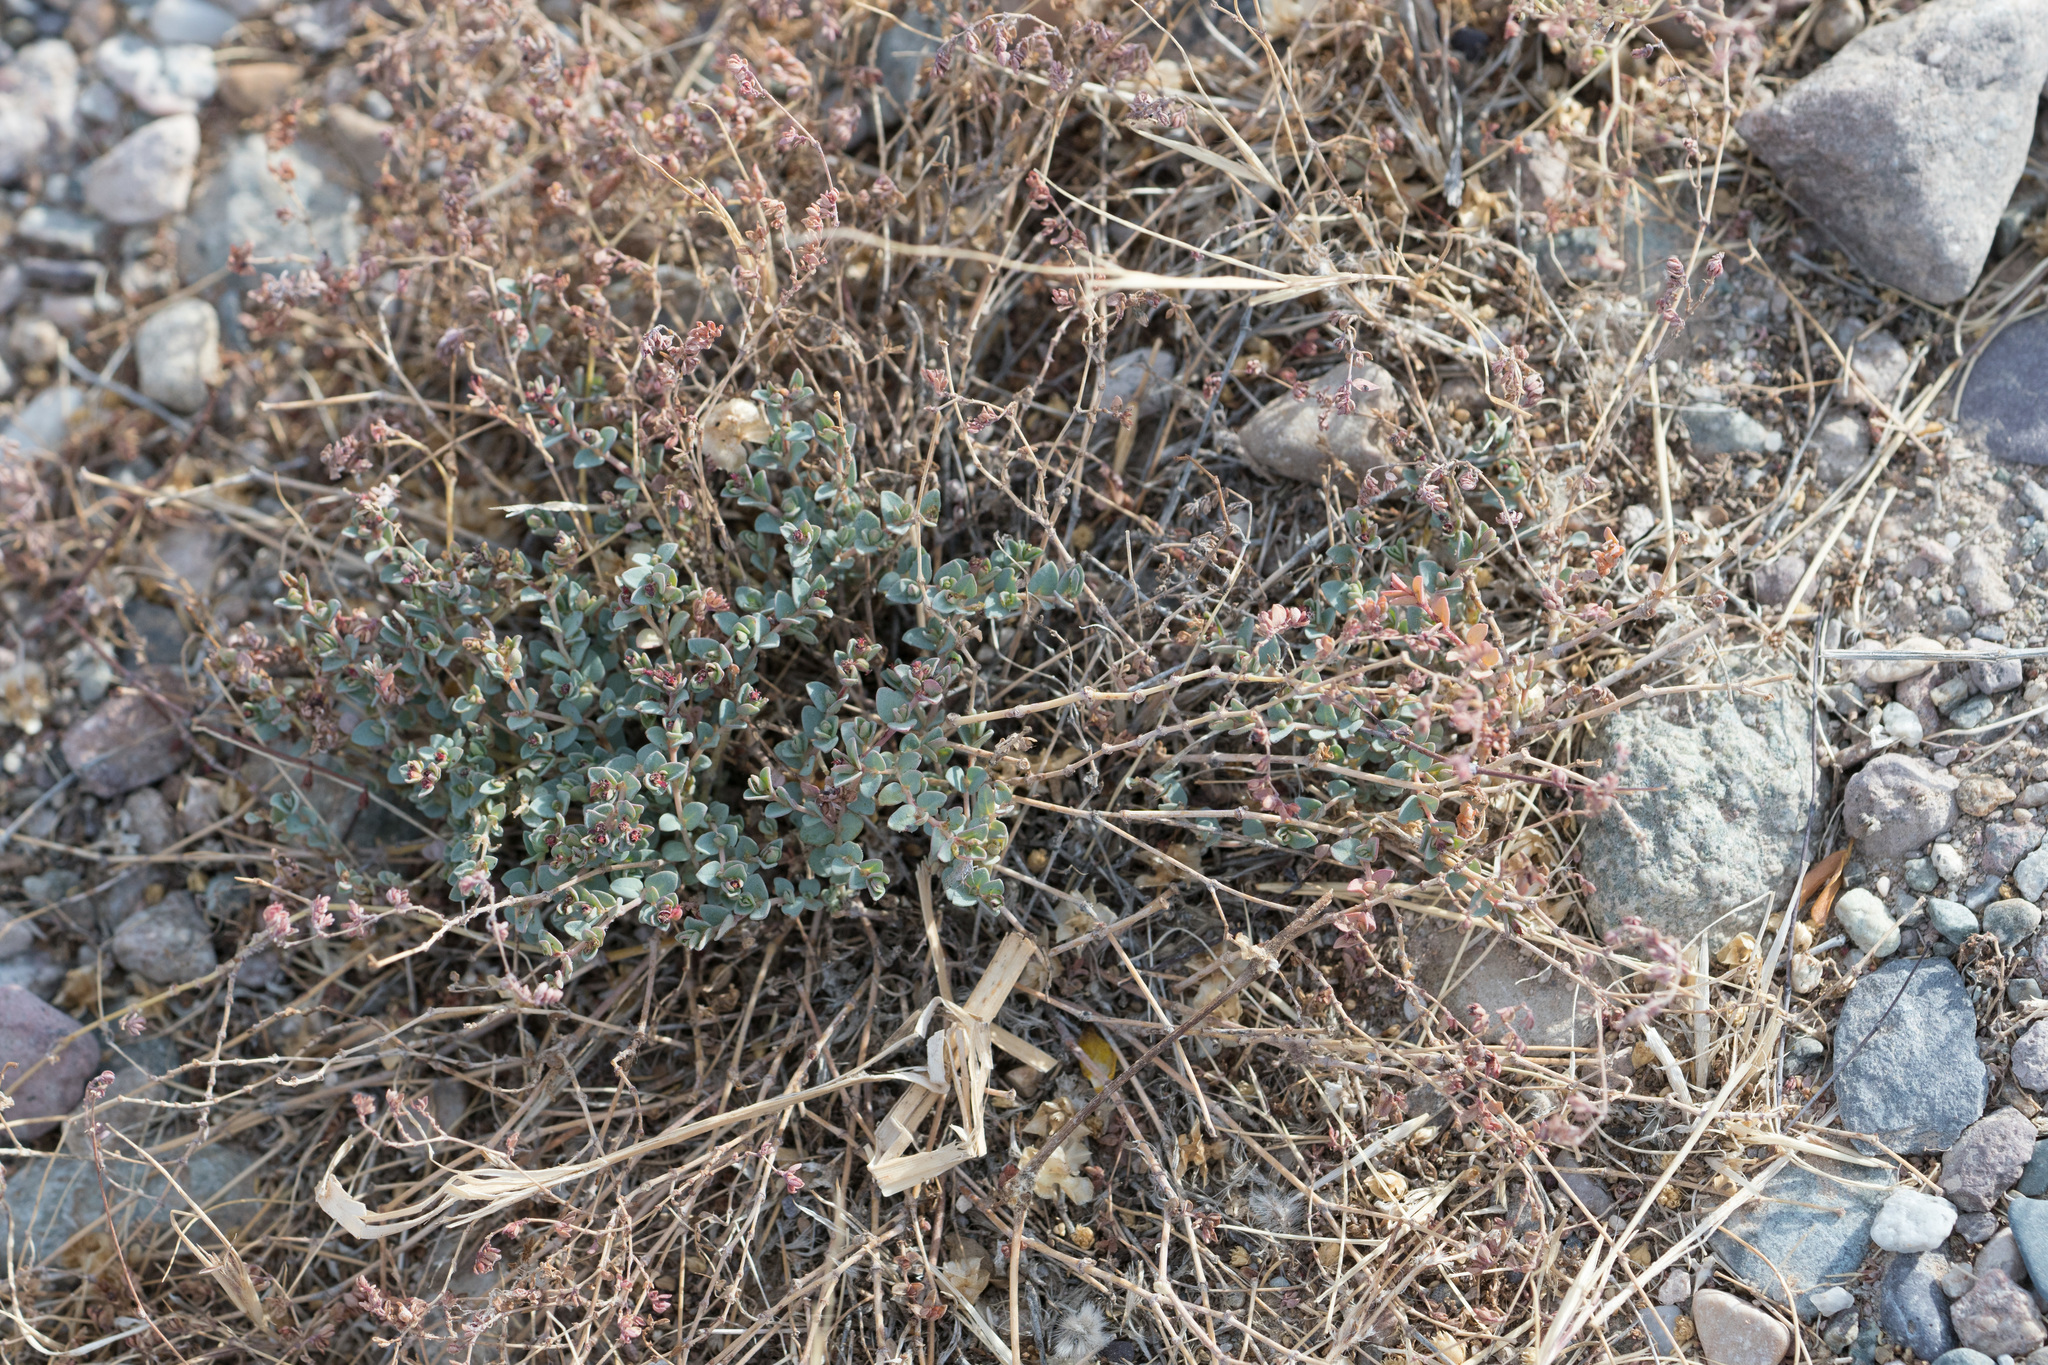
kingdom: Plantae
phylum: Tracheophyta
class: Magnoliopsida
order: Malpighiales
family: Euphorbiaceae
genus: Euphorbia
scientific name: Euphorbia polycarpa
